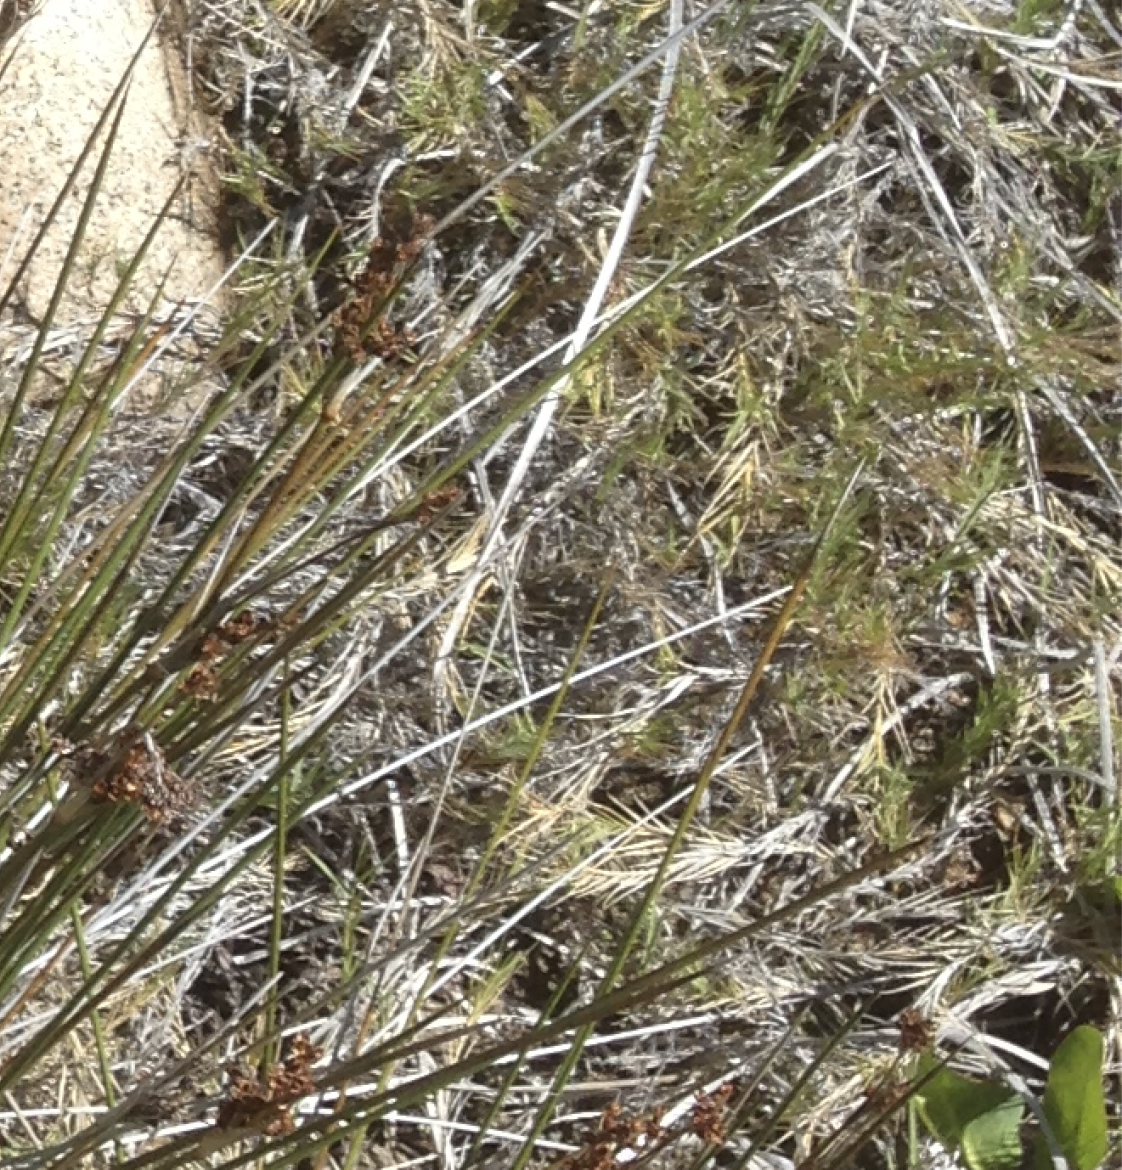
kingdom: Plantae
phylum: Tracheophyta
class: Liliopsida
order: Poales
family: Poaceae
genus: Distichlis
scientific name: Distichlis spicata
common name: Saltgrass
